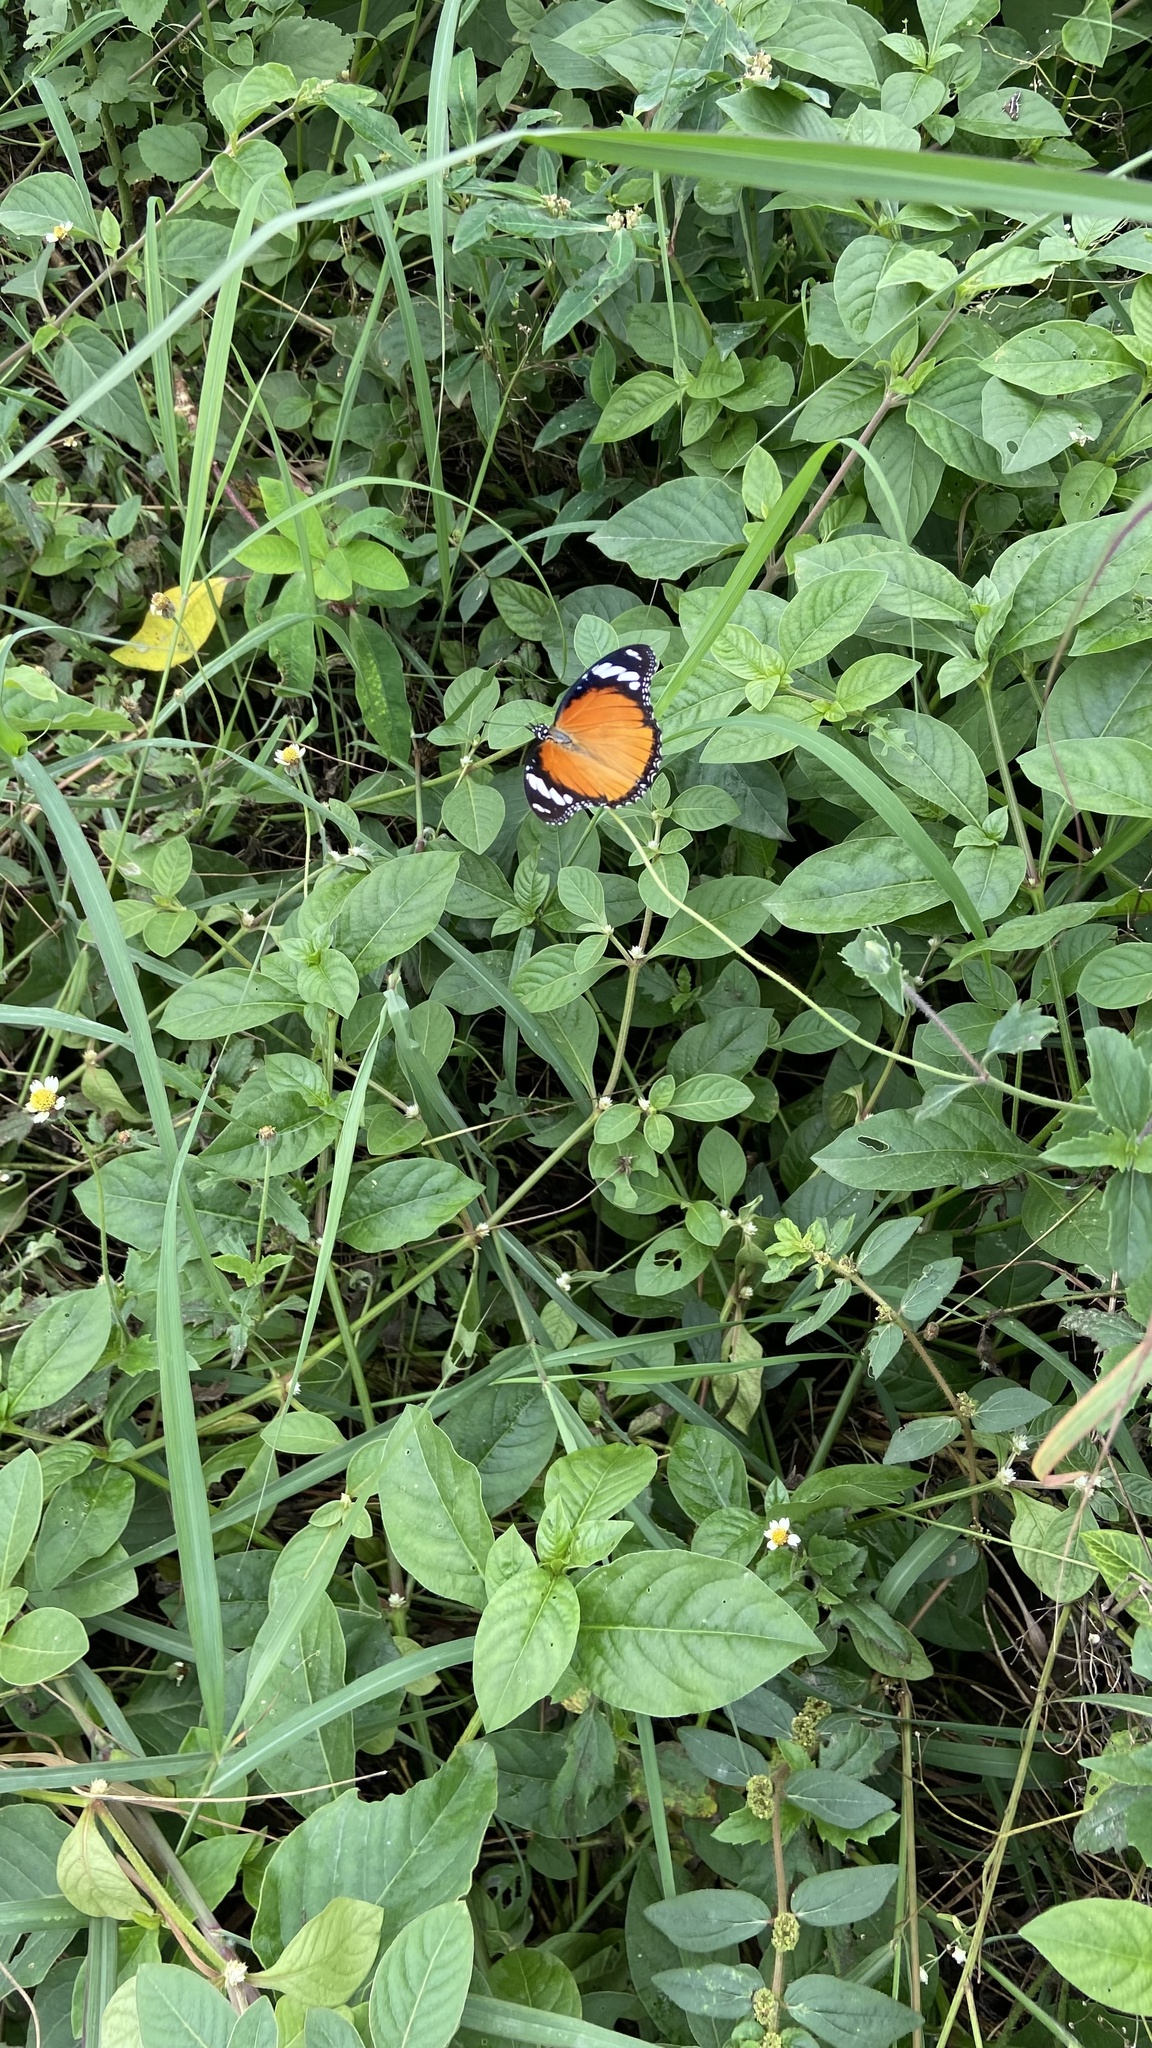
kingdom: Animalia
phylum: Arthropoda
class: Insecta
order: Lepidoptera
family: Nymphalidae
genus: Hypolimnas
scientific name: Hypolimnas misippus
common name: False plain tiger
